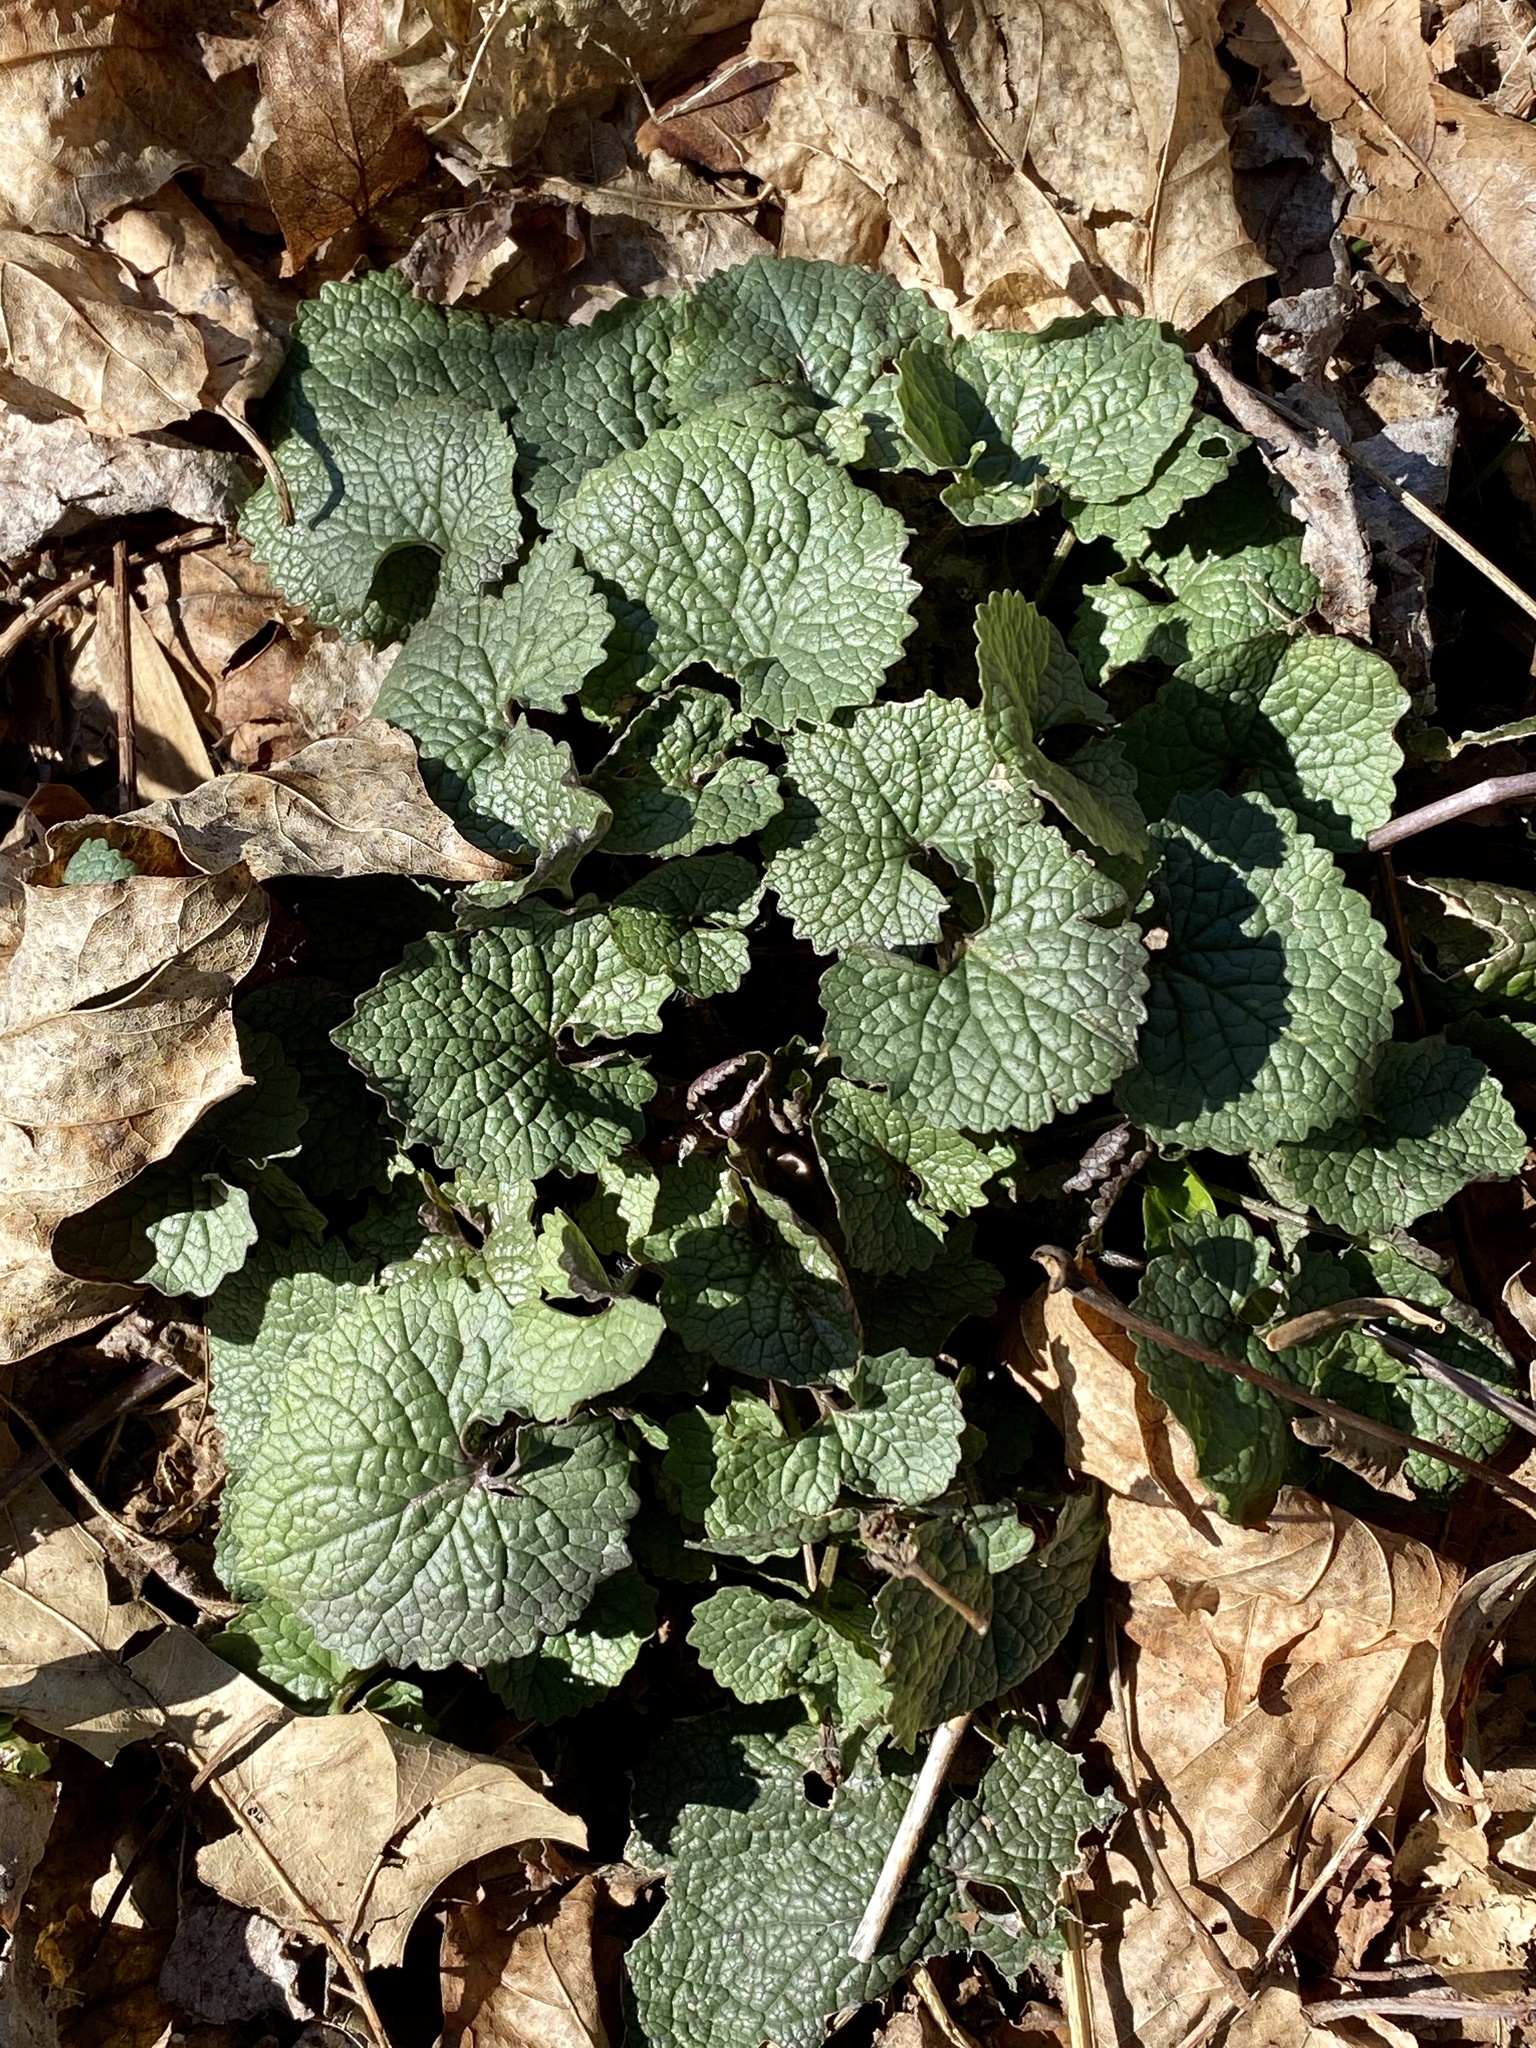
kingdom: Plantae
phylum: Tracheophyta
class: Magnoliopsida
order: Brassicales
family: Brassicaceae
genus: Alliaria
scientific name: Alliaria petiolata
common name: Garlic mustard
